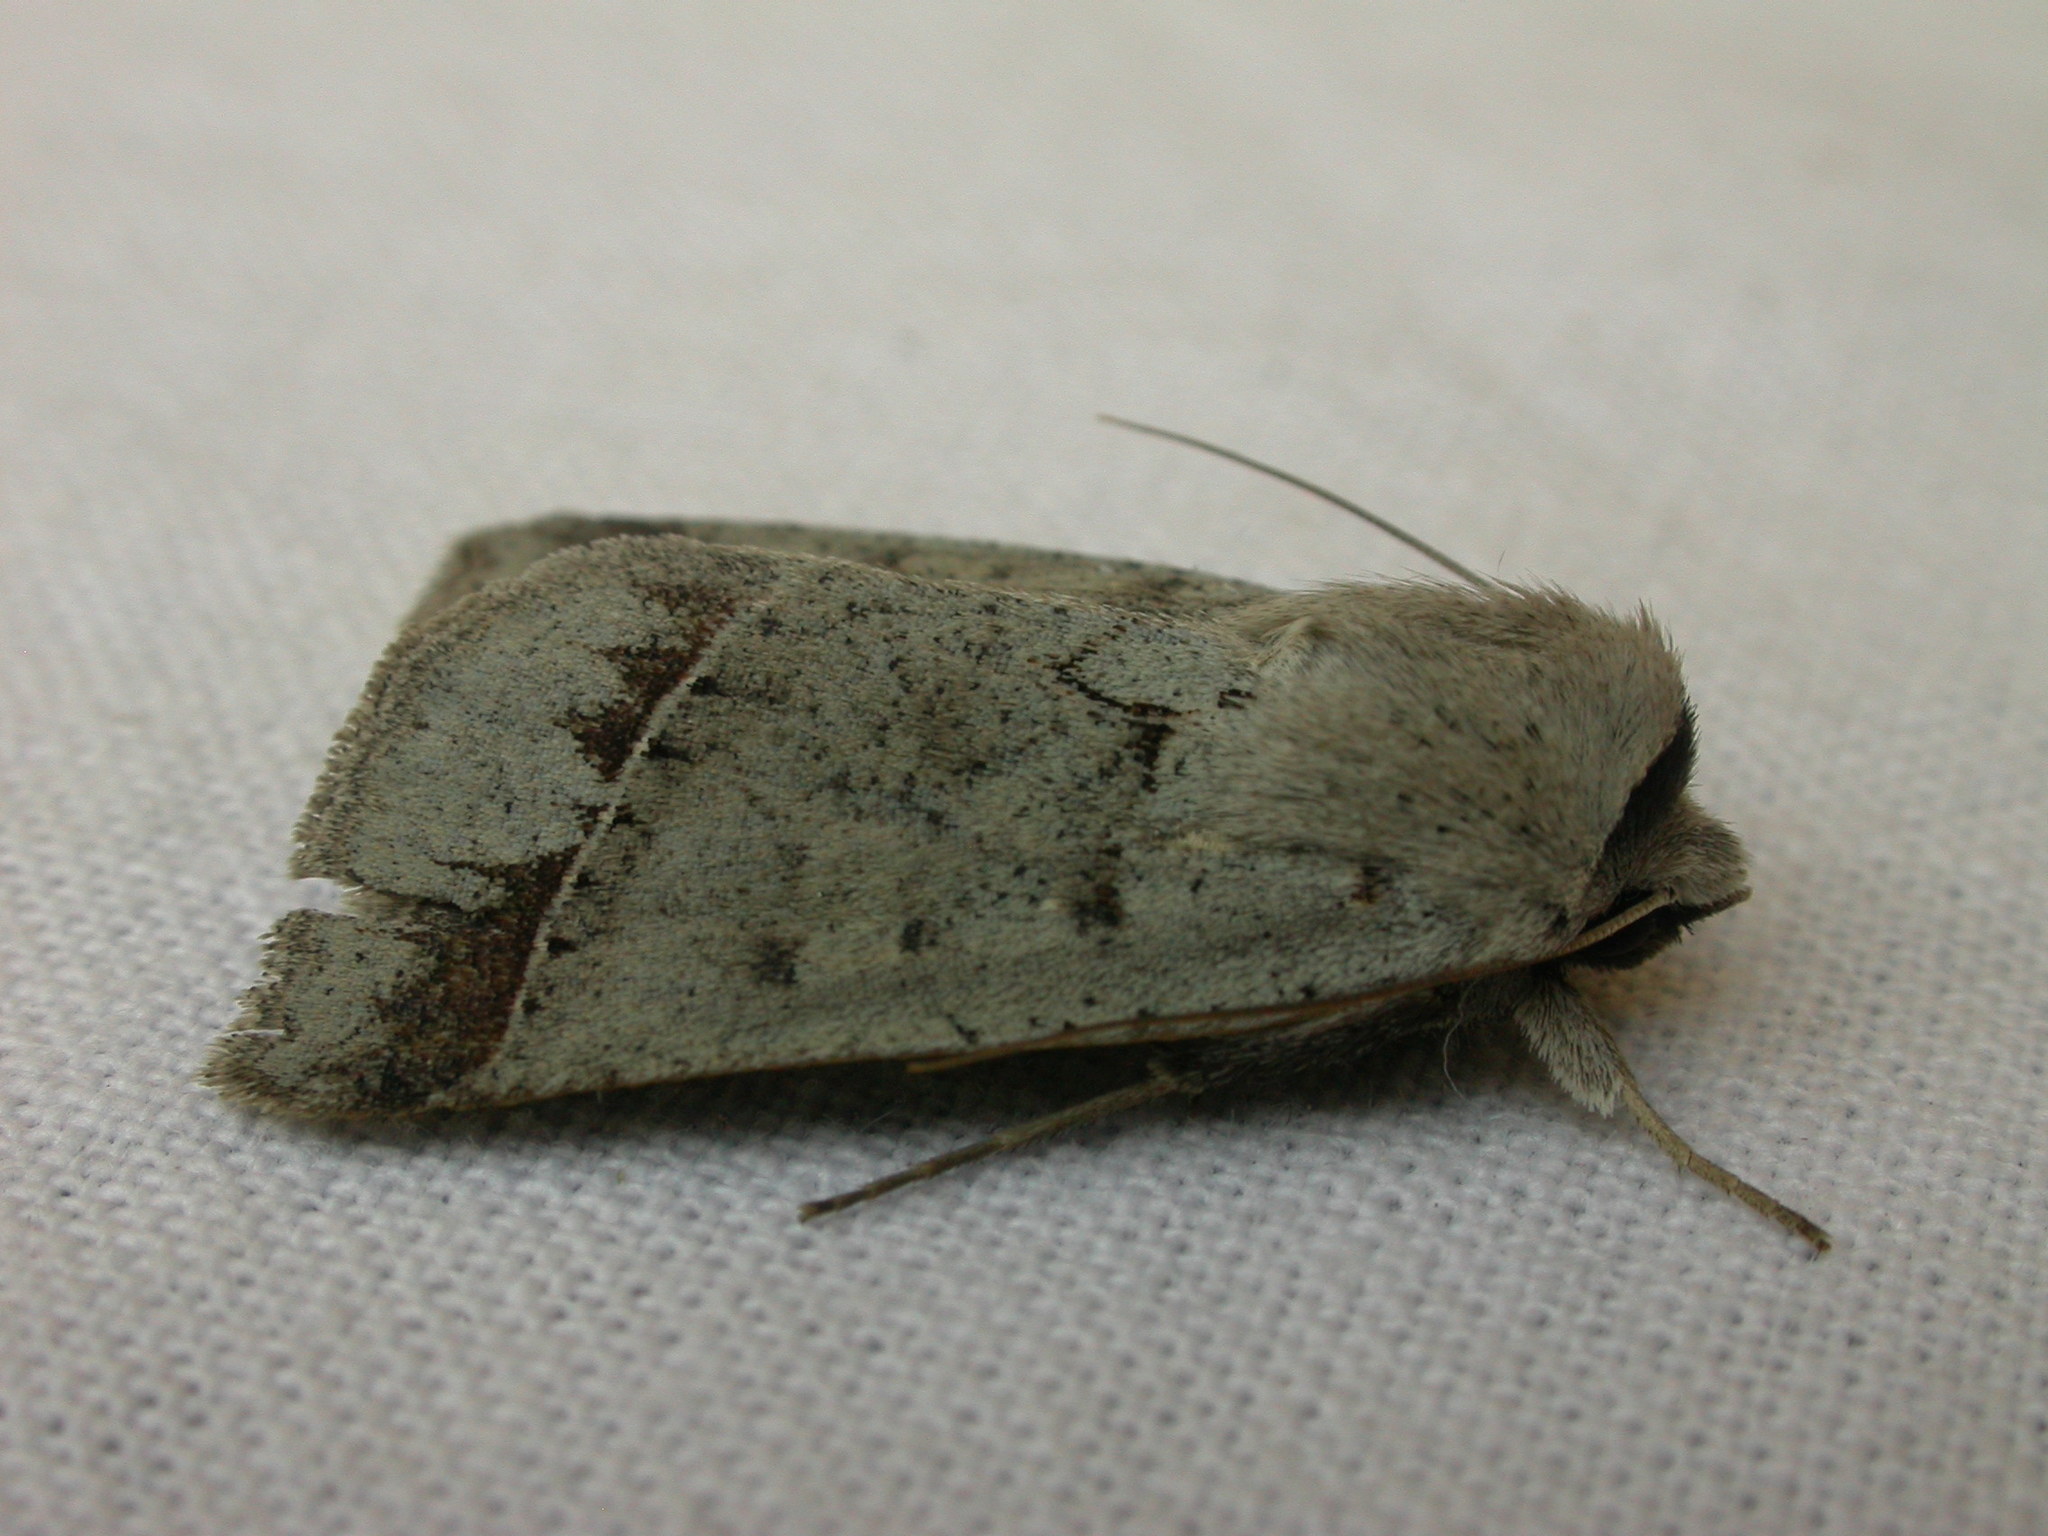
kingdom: Animalia
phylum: Arthropoda
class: Insecta
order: Lepidoptera
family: Erebidae
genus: Pantydia
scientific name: Pantydia sparsa
